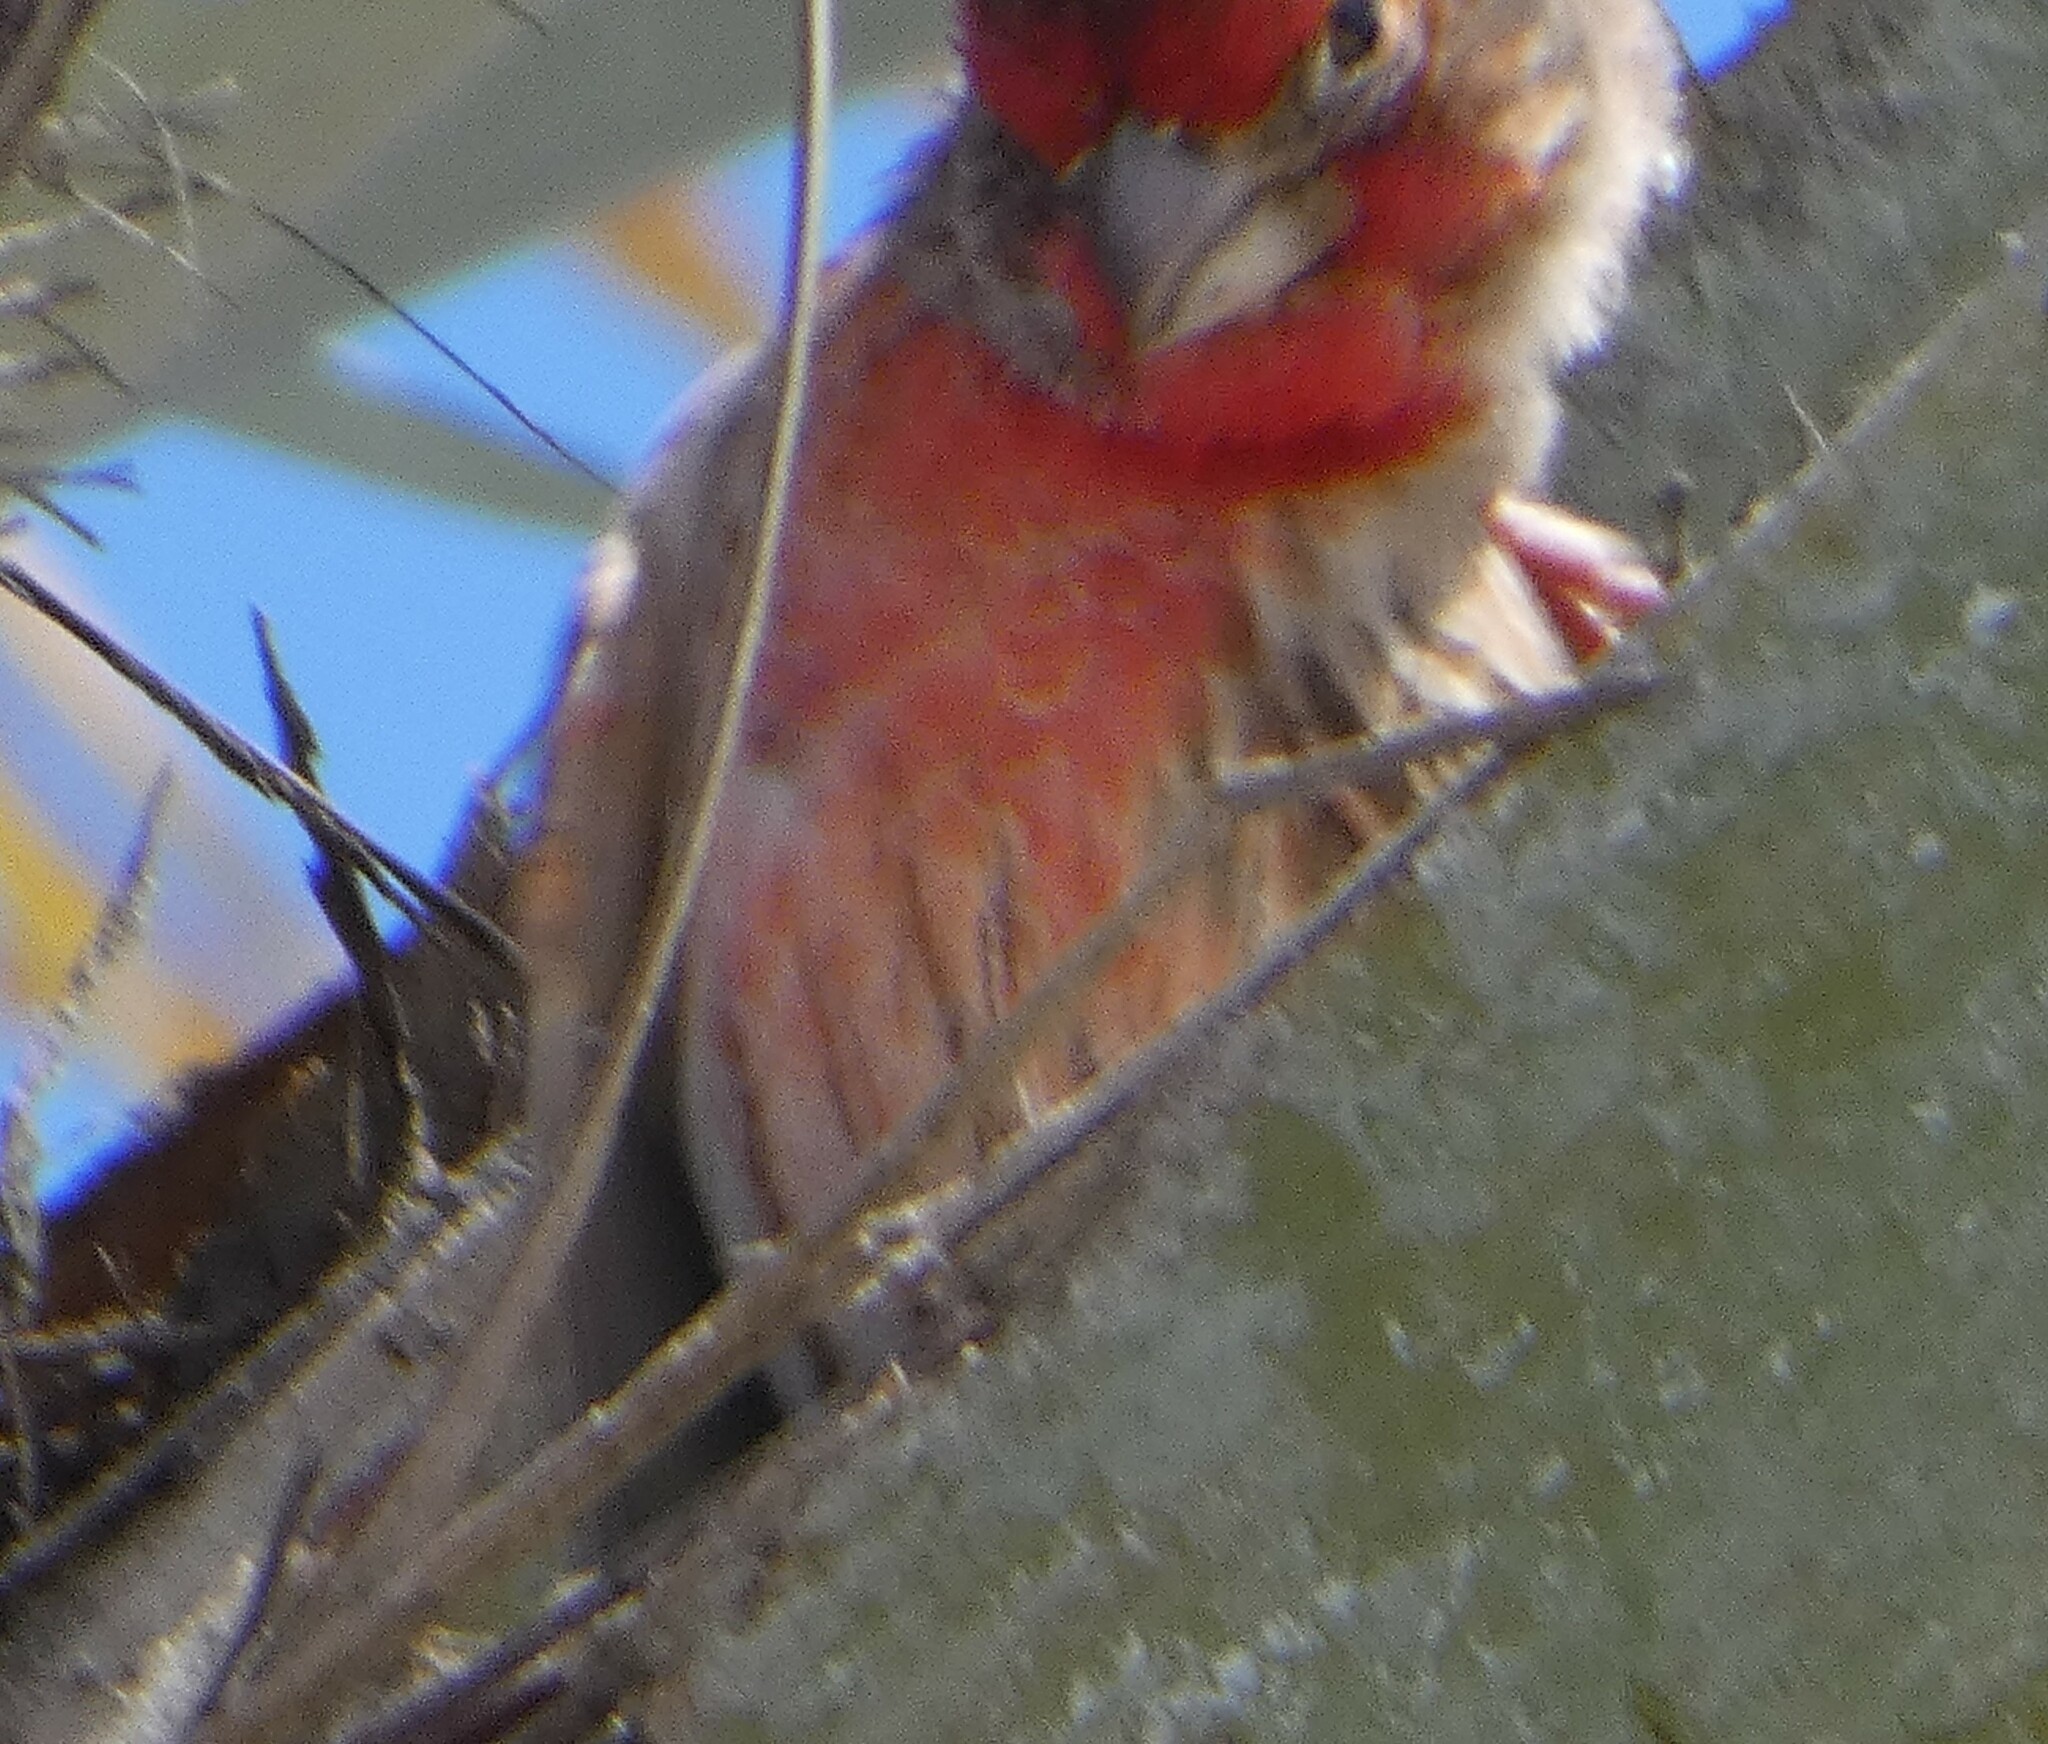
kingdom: Animalia
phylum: Chordata
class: Aves
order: Passeriformes
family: Fringillidae
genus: Haemorhous
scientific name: Haemorhous mexicanus
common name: House finch
